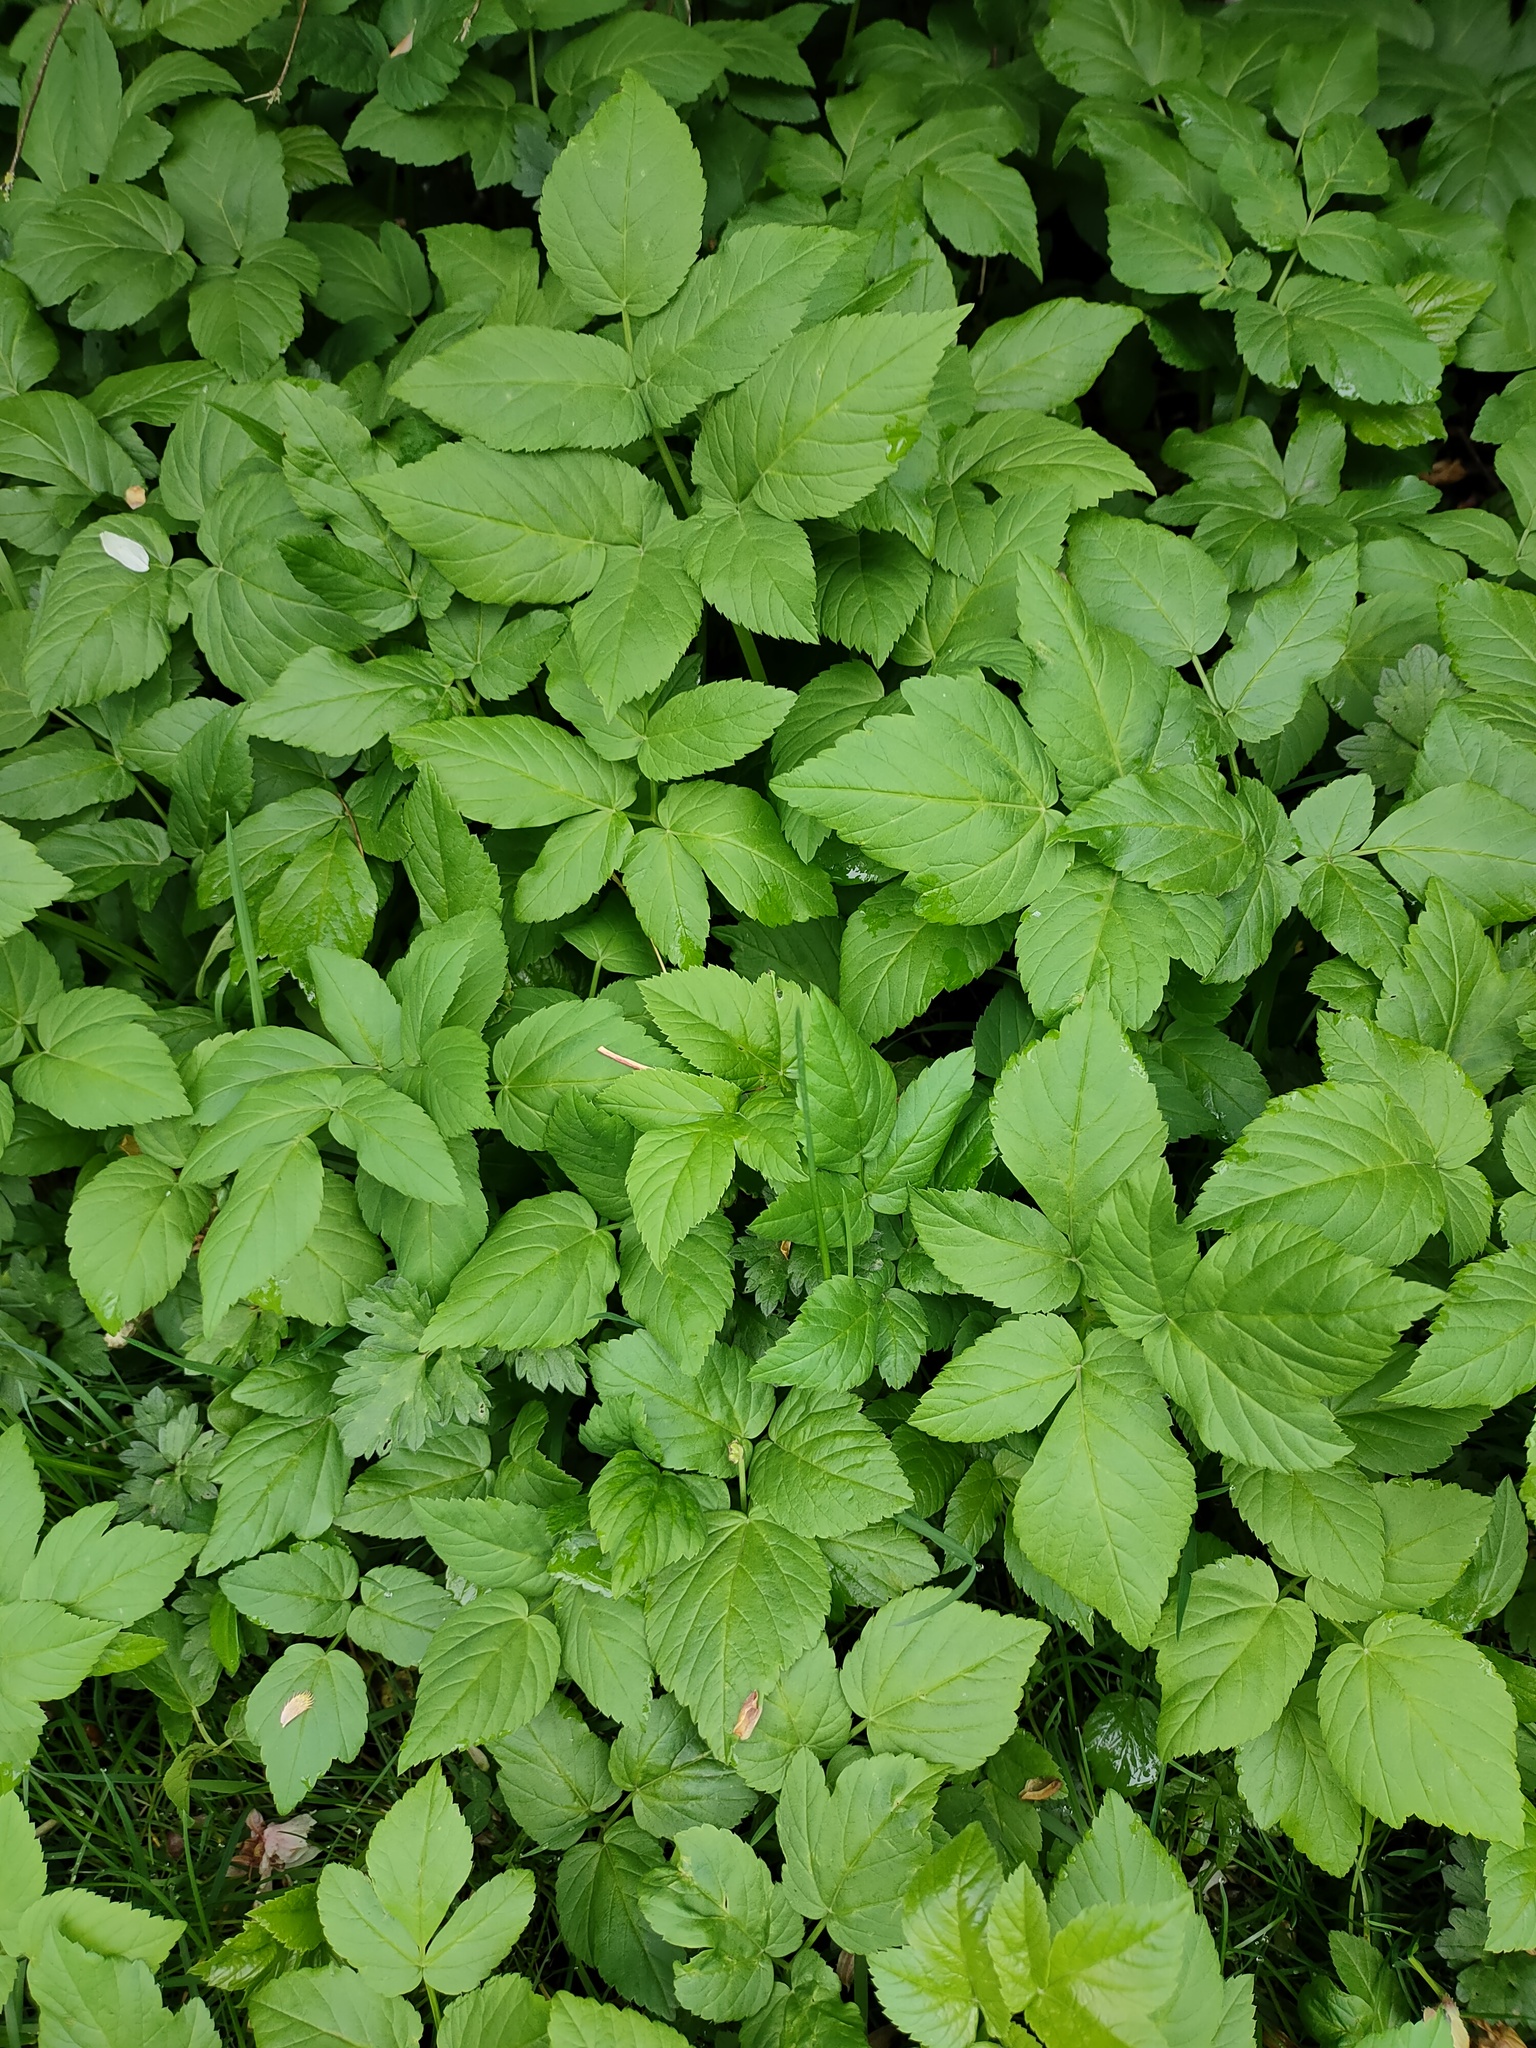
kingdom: Plantae
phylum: Tracheophyta
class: Magnoliopsida
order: Apiales
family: Apiaceae
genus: Aegopodium
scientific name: Aegopodium podagraria
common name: Ground-elder
